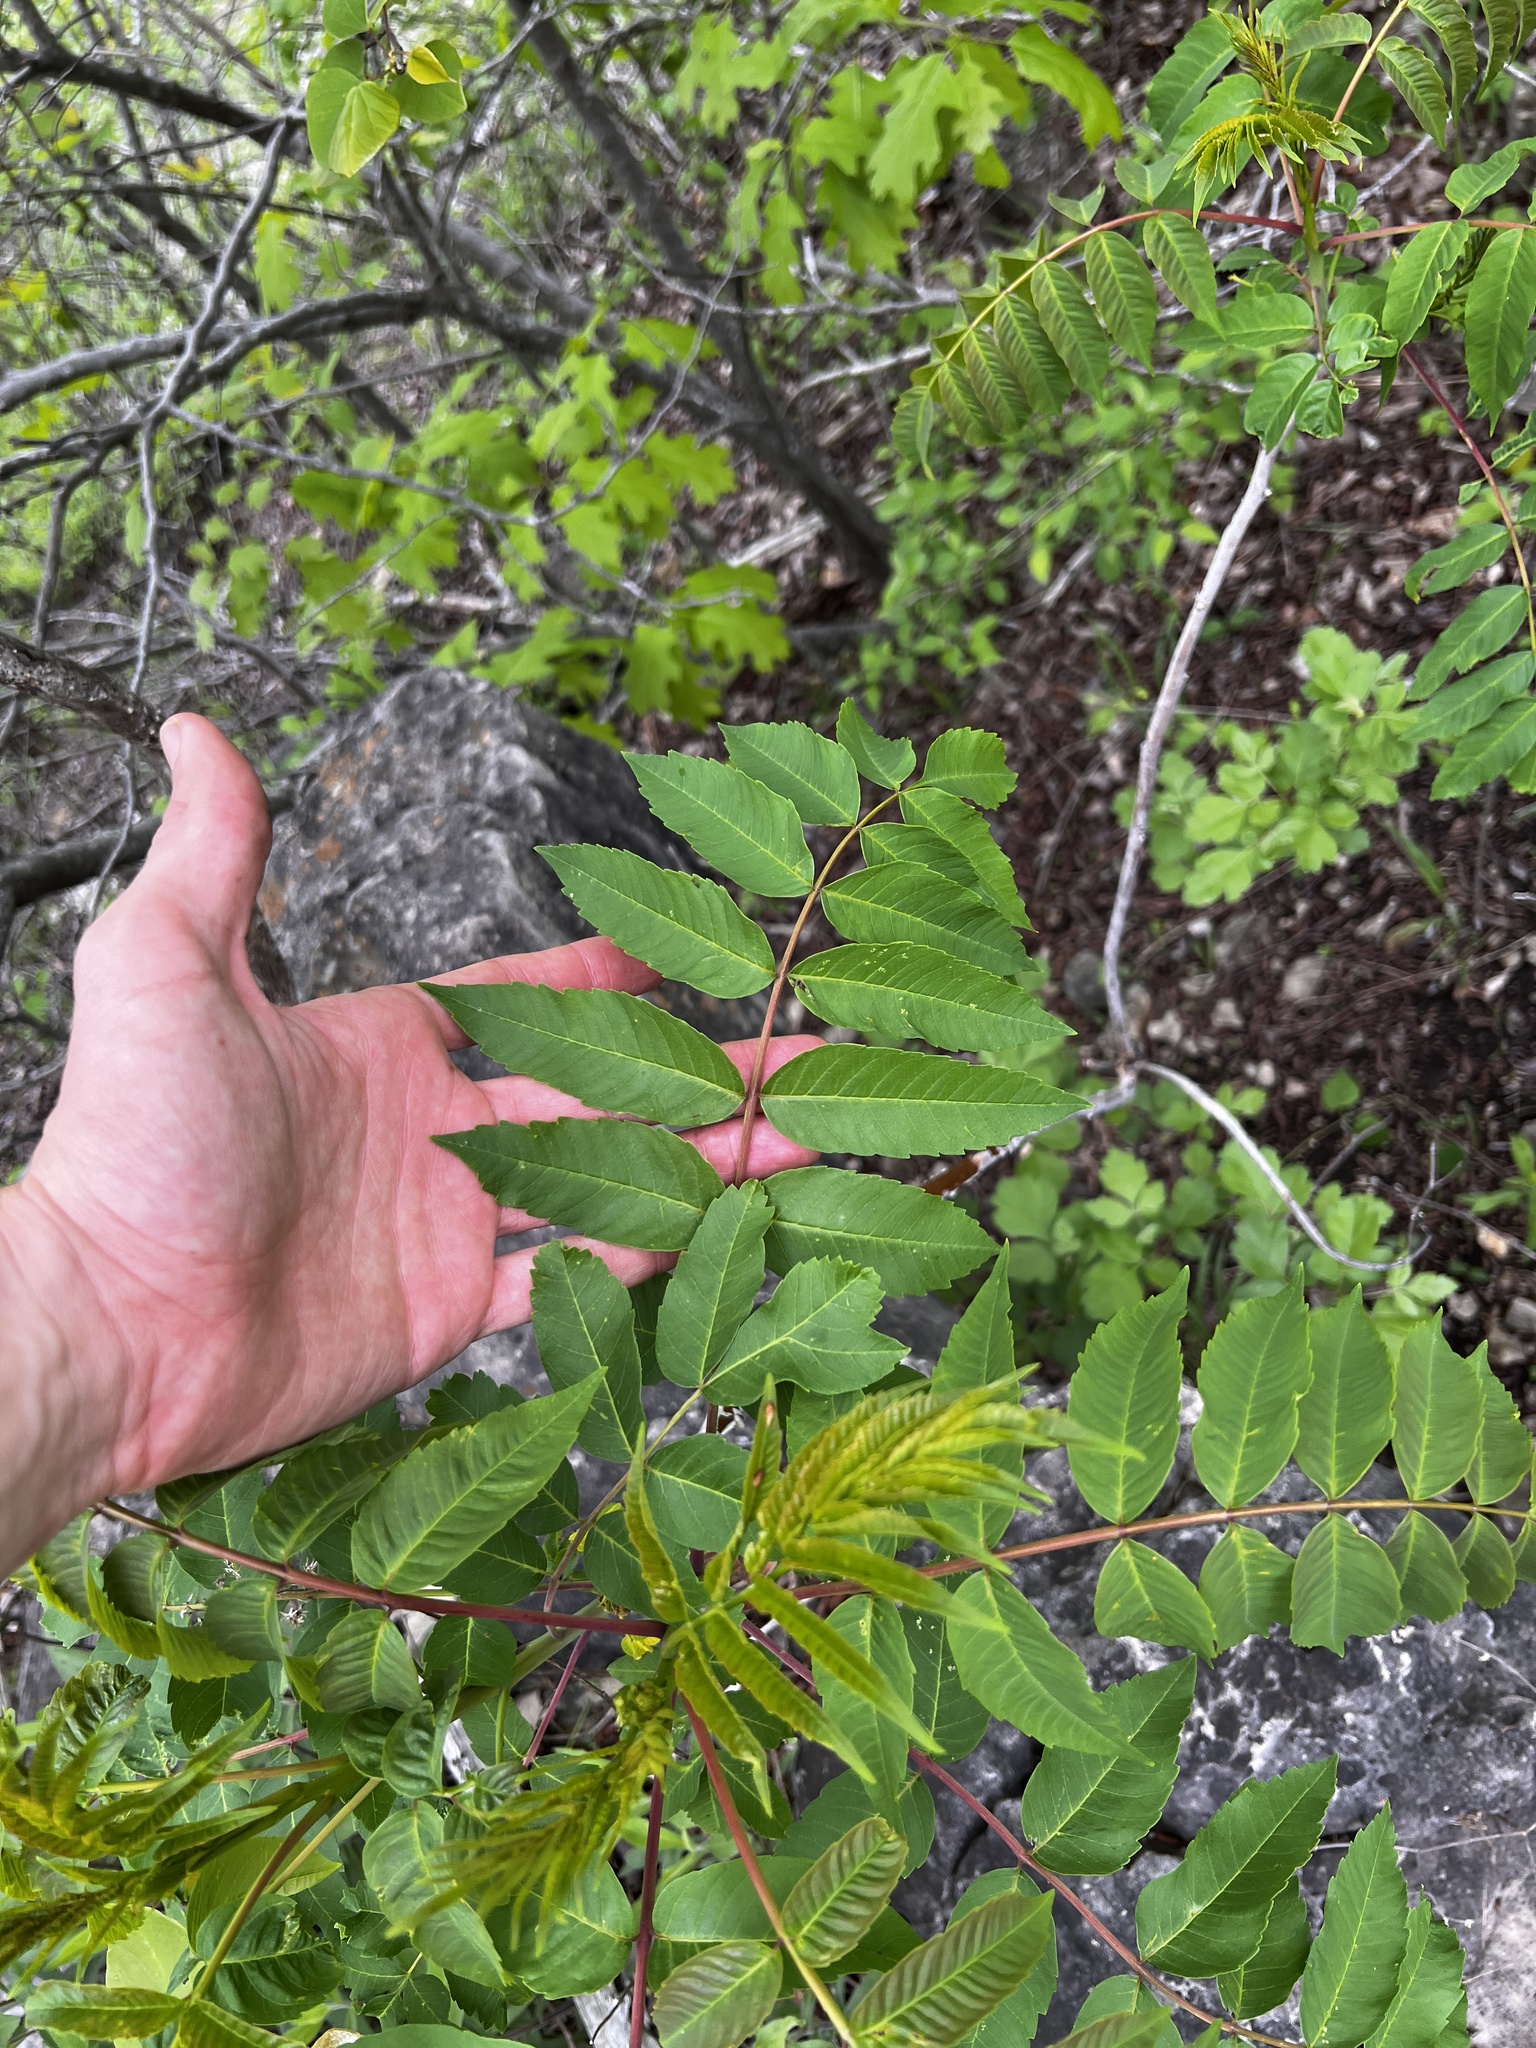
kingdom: Plantae
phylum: Tracheophyta
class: Magnoliopsida
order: Sapindales
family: Anacardiaceae
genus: Rhus
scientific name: Rhus glabra
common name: Scarlet sumac
